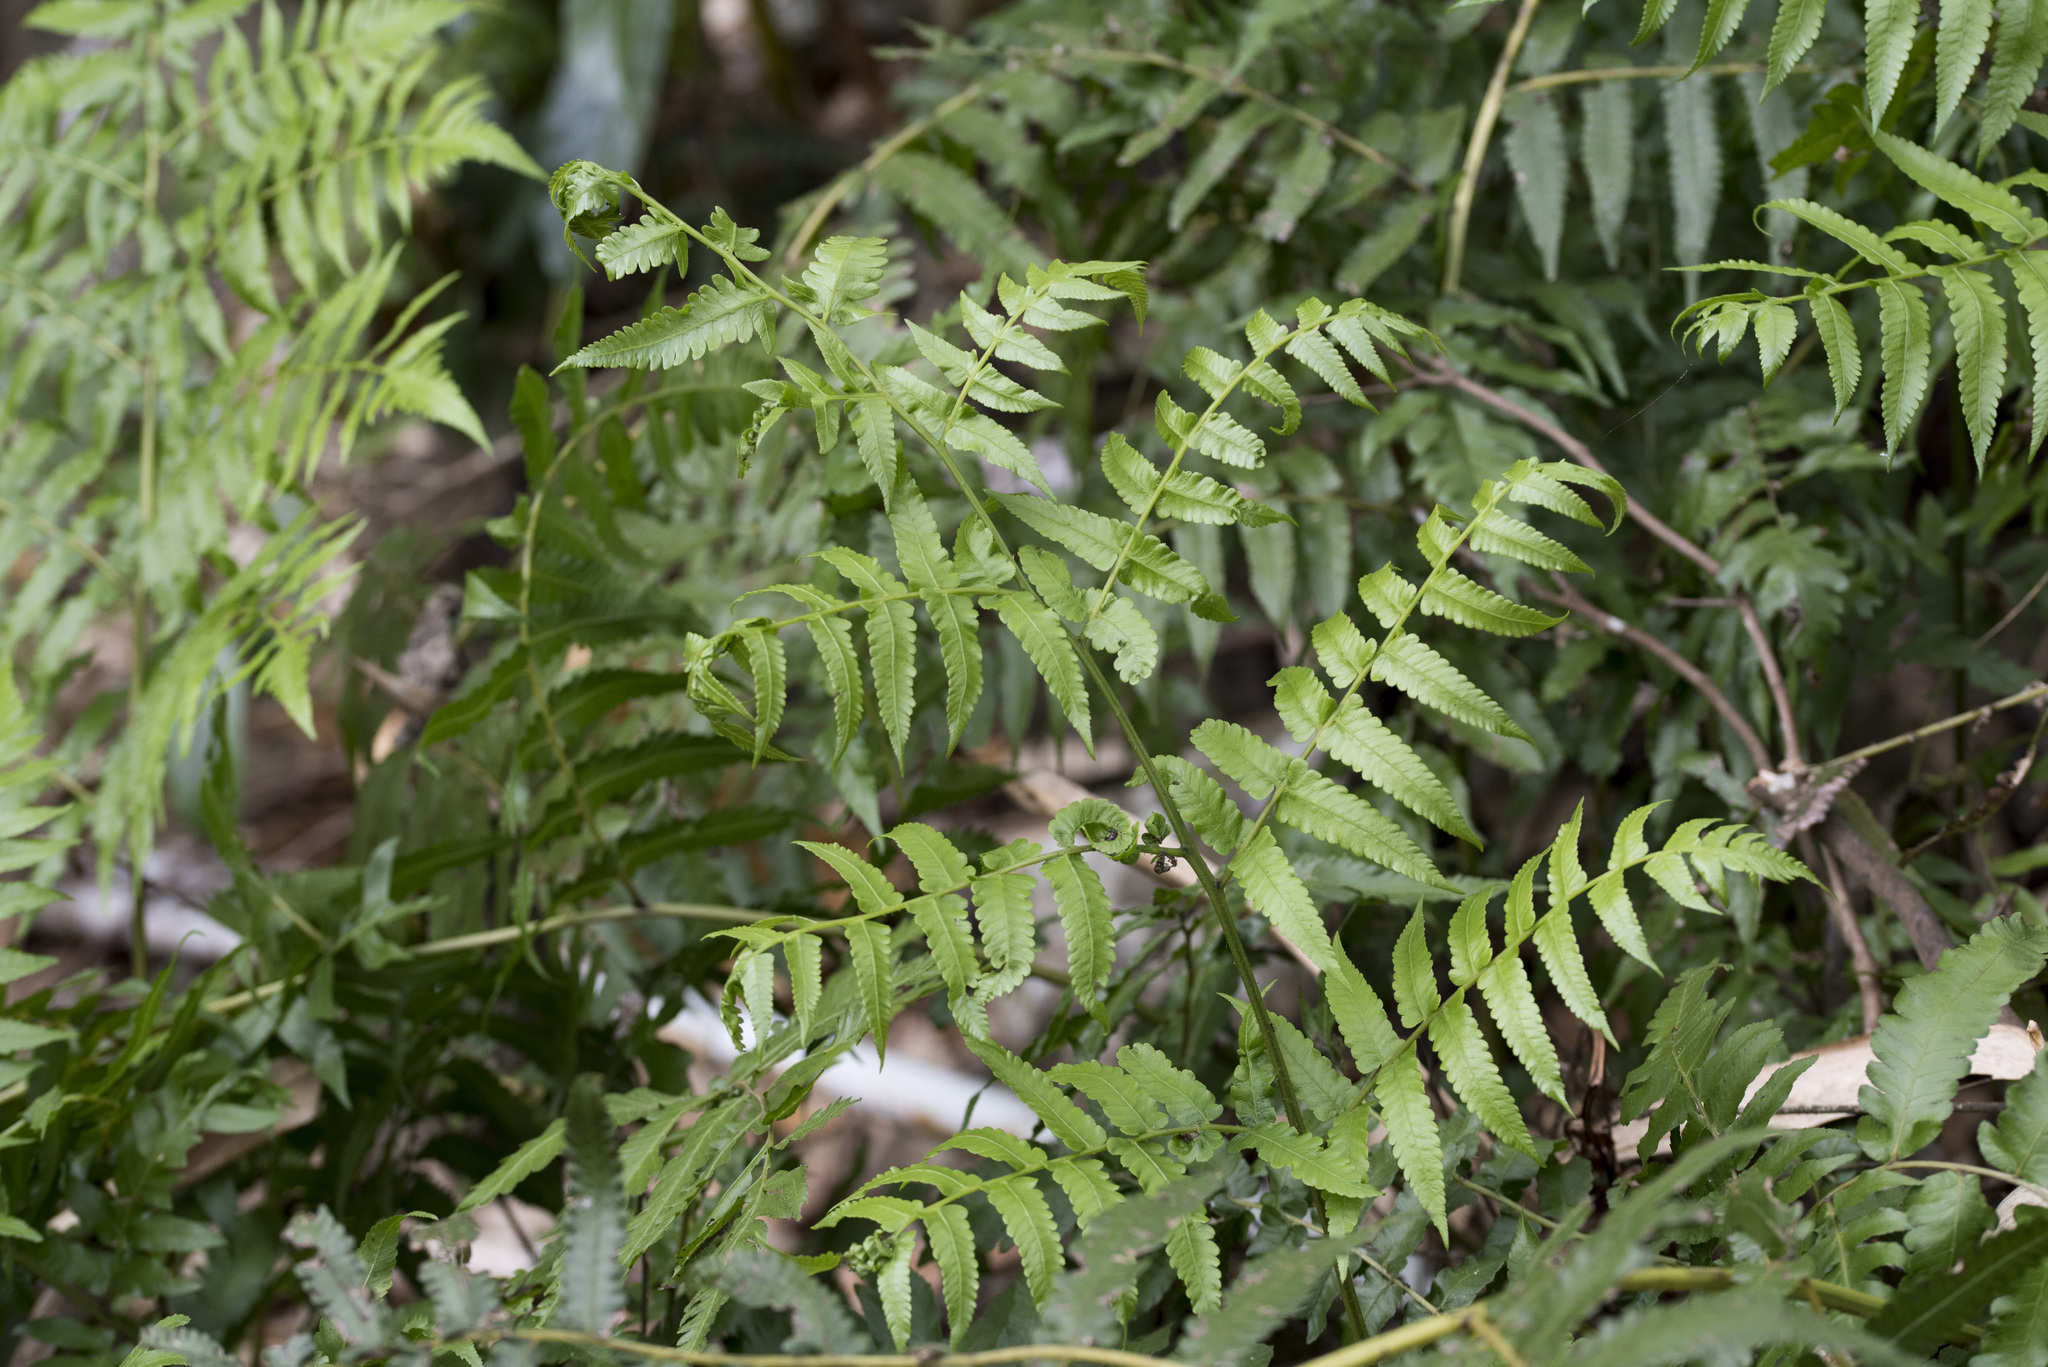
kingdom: Plantae
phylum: Tracheophyta
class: Polypodiopsida
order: Polypodiales
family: Athyriaceae
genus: Diplazium
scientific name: Diplazium esculentum
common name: Vegetable fern
